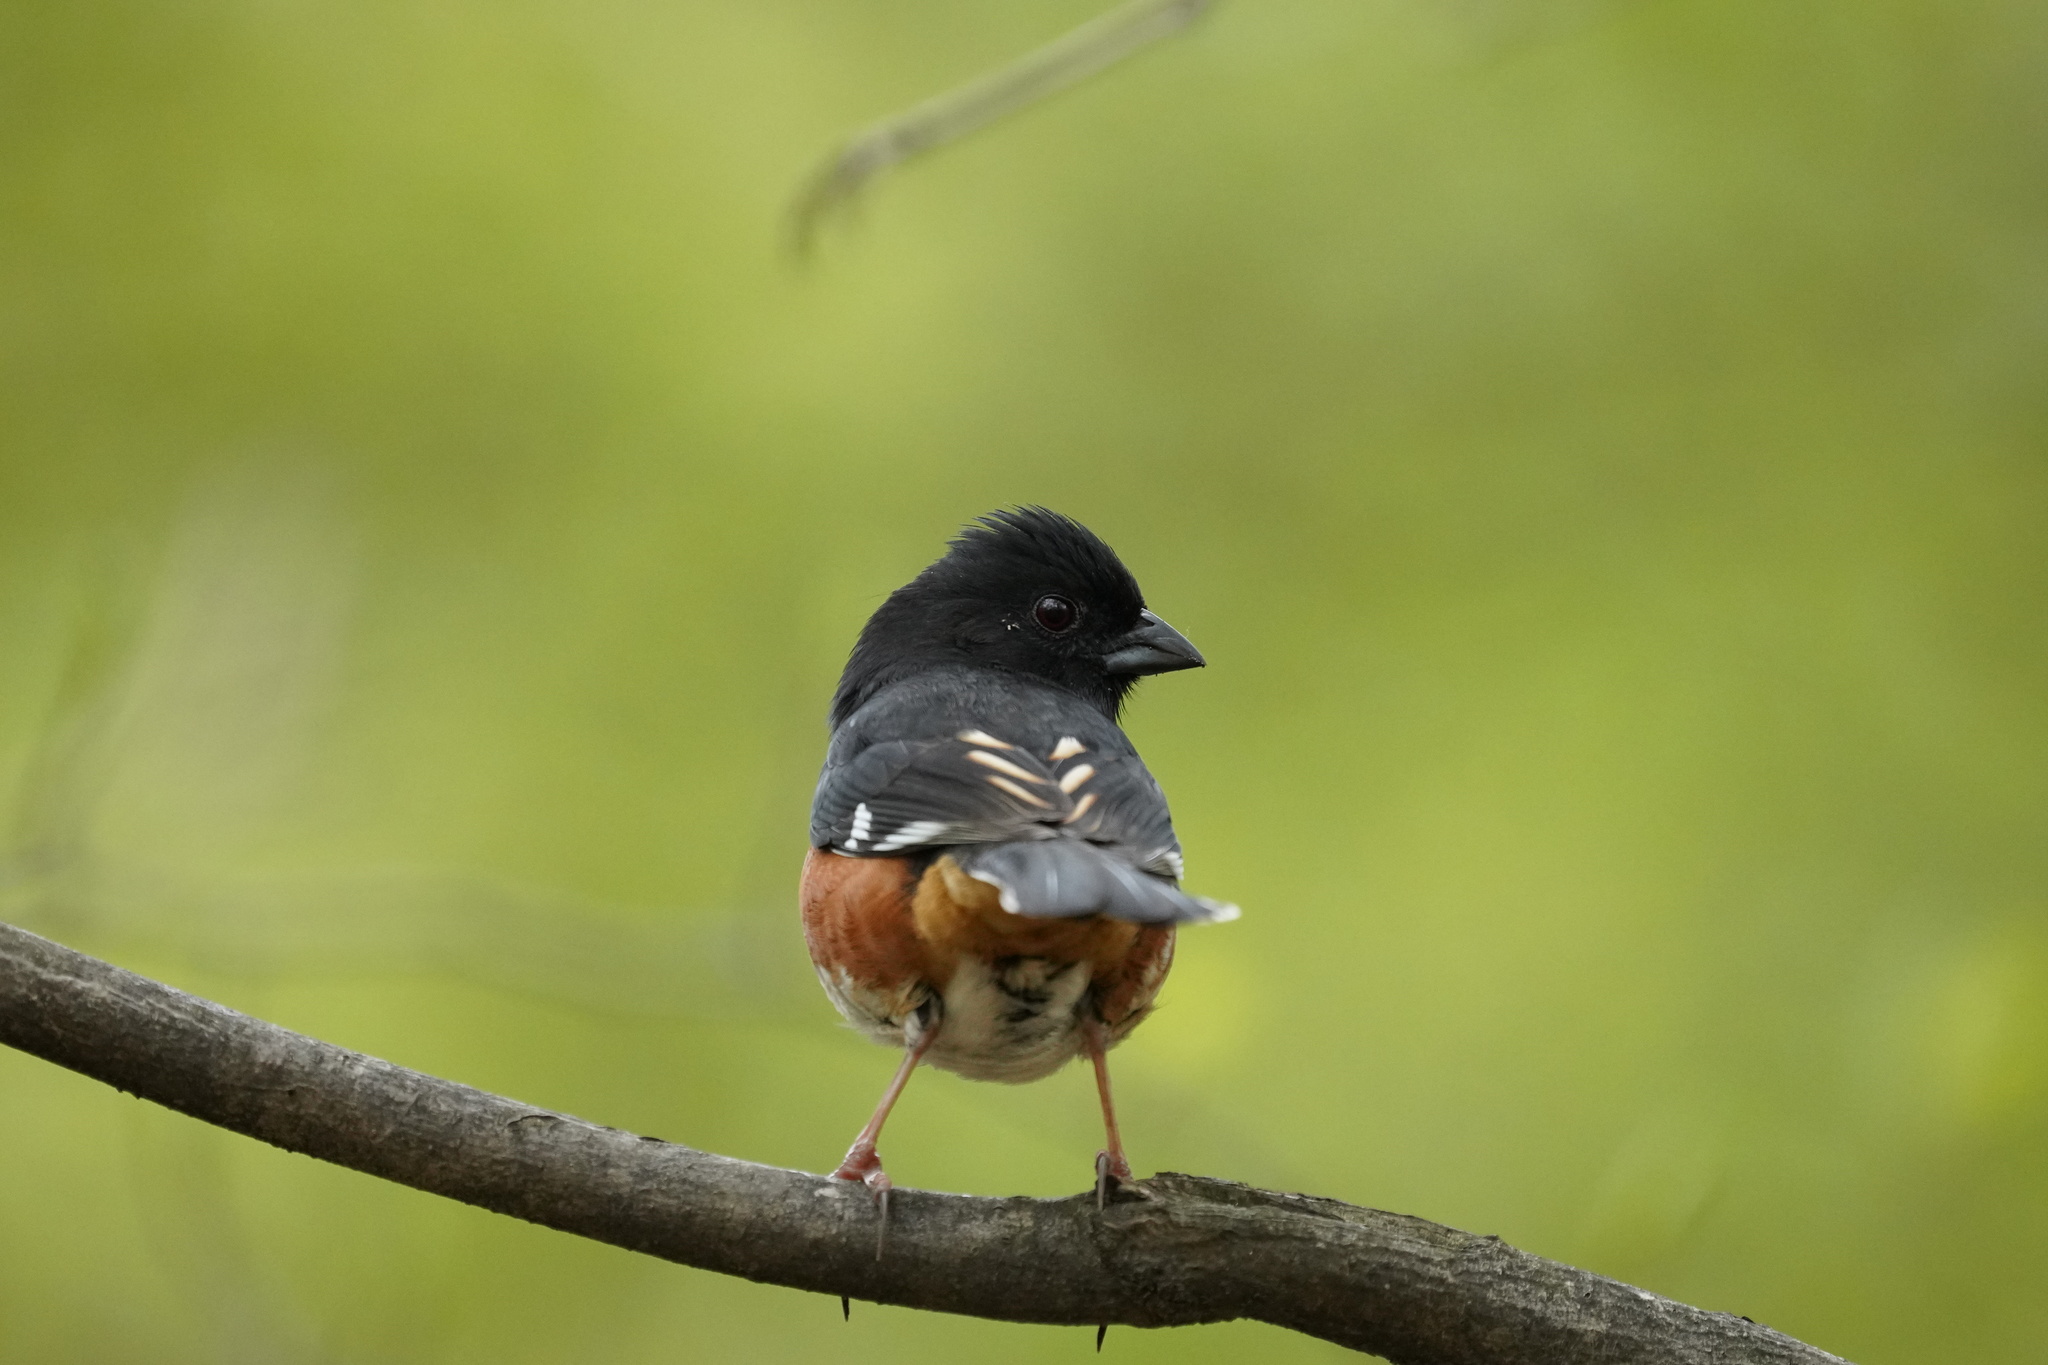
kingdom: Animalia
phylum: Chordata
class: Aves
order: Passeriformes
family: Passerellidae
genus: Pipilo
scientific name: Pipilo erythrophthalmus
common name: Eastern towhee
